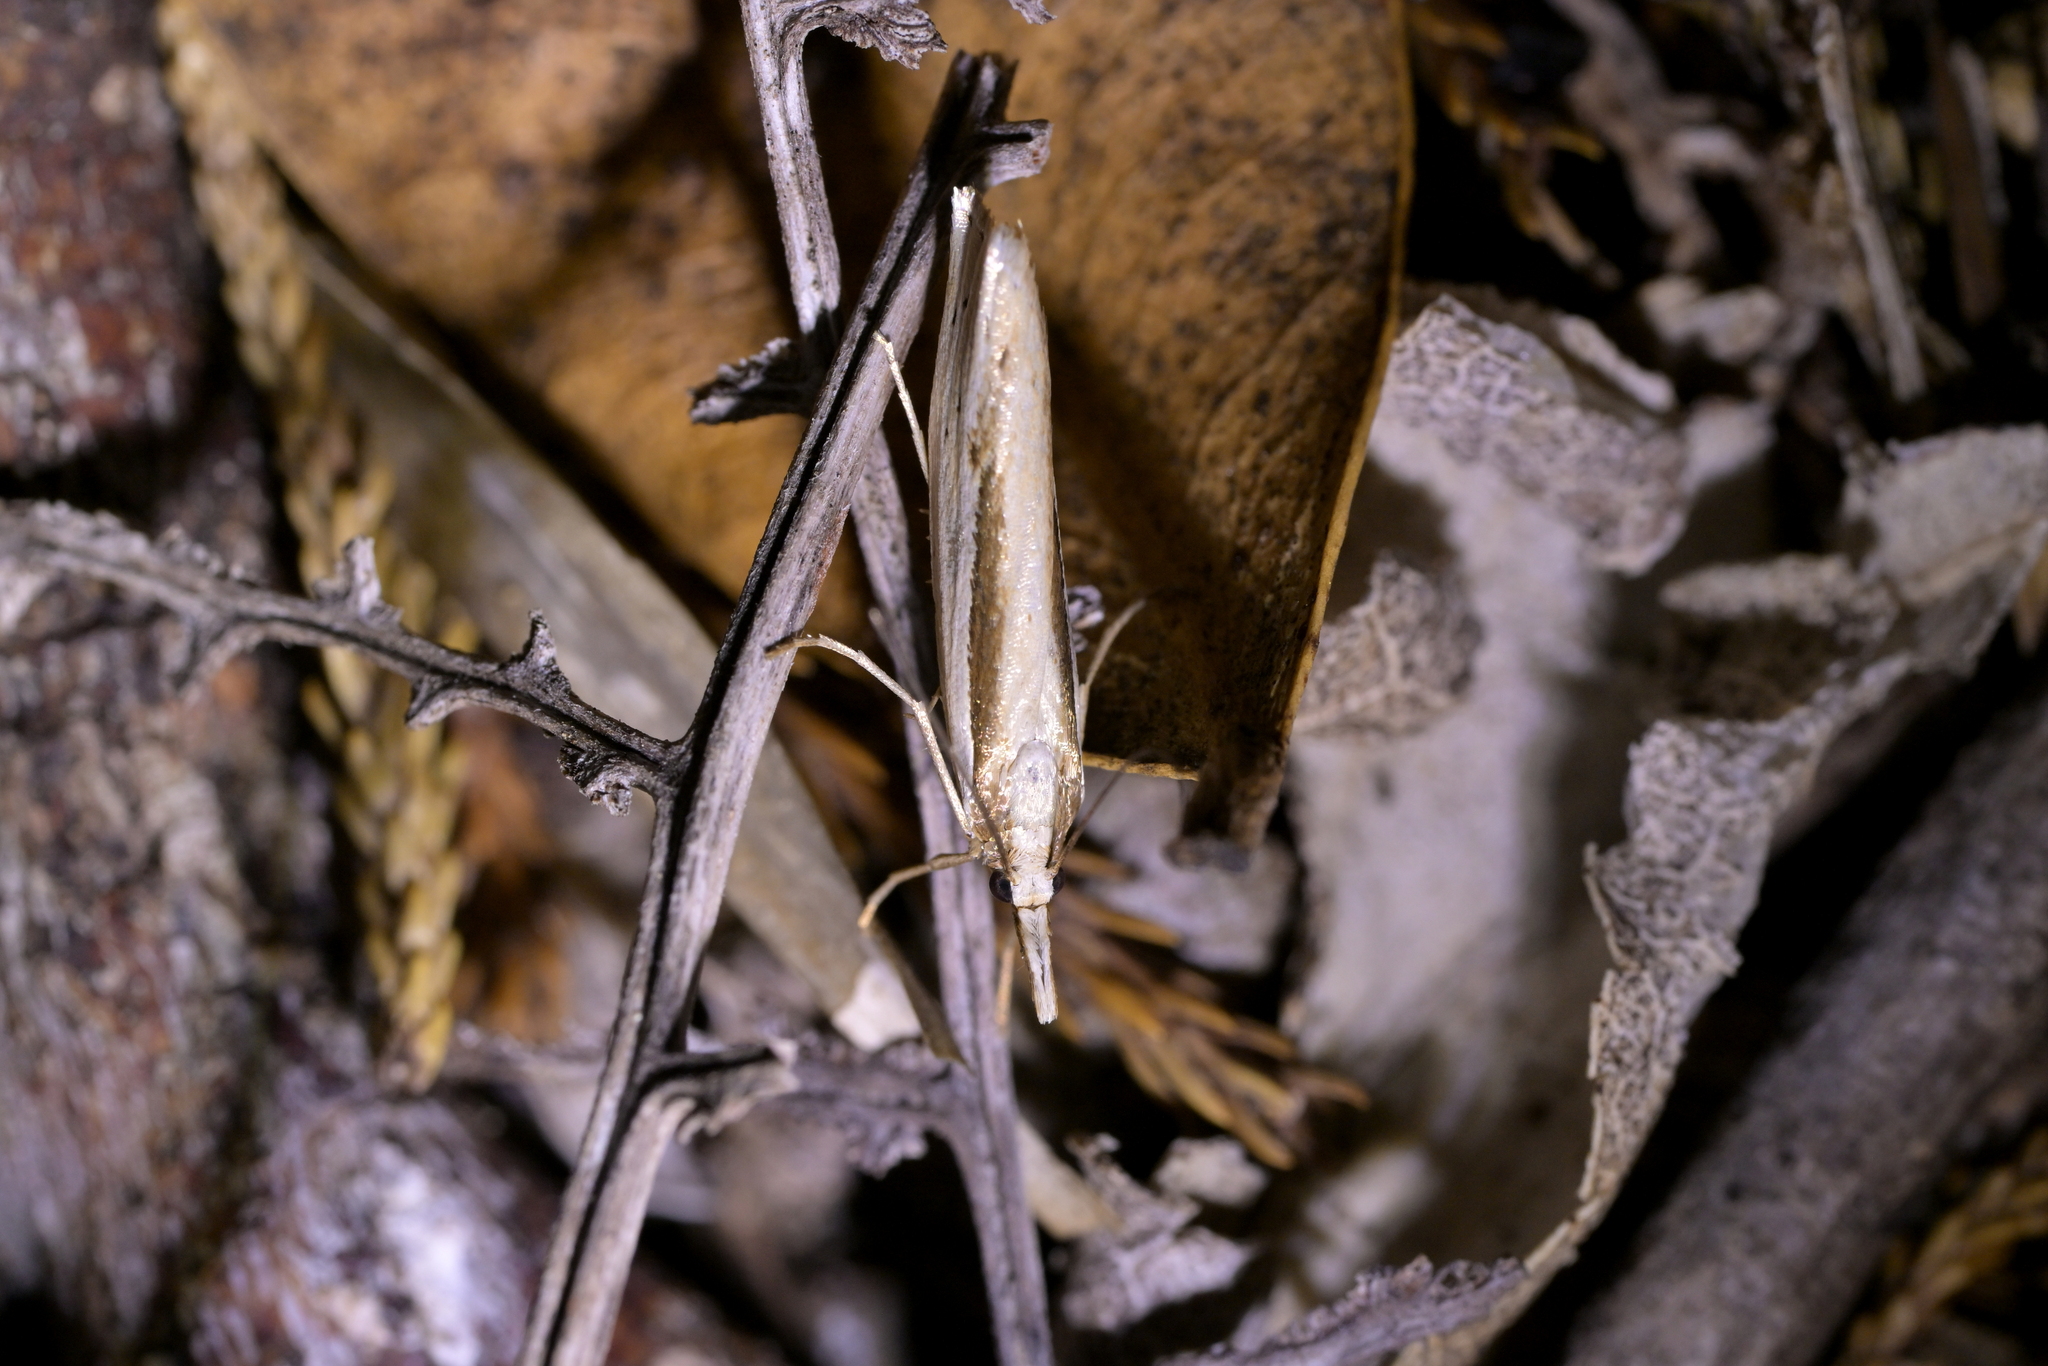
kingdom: Animalia
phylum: Arthropoda
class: Insecta
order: Lepidoptera
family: Crambidae
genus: Orocrambus
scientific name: Orocrambus ramosellus
